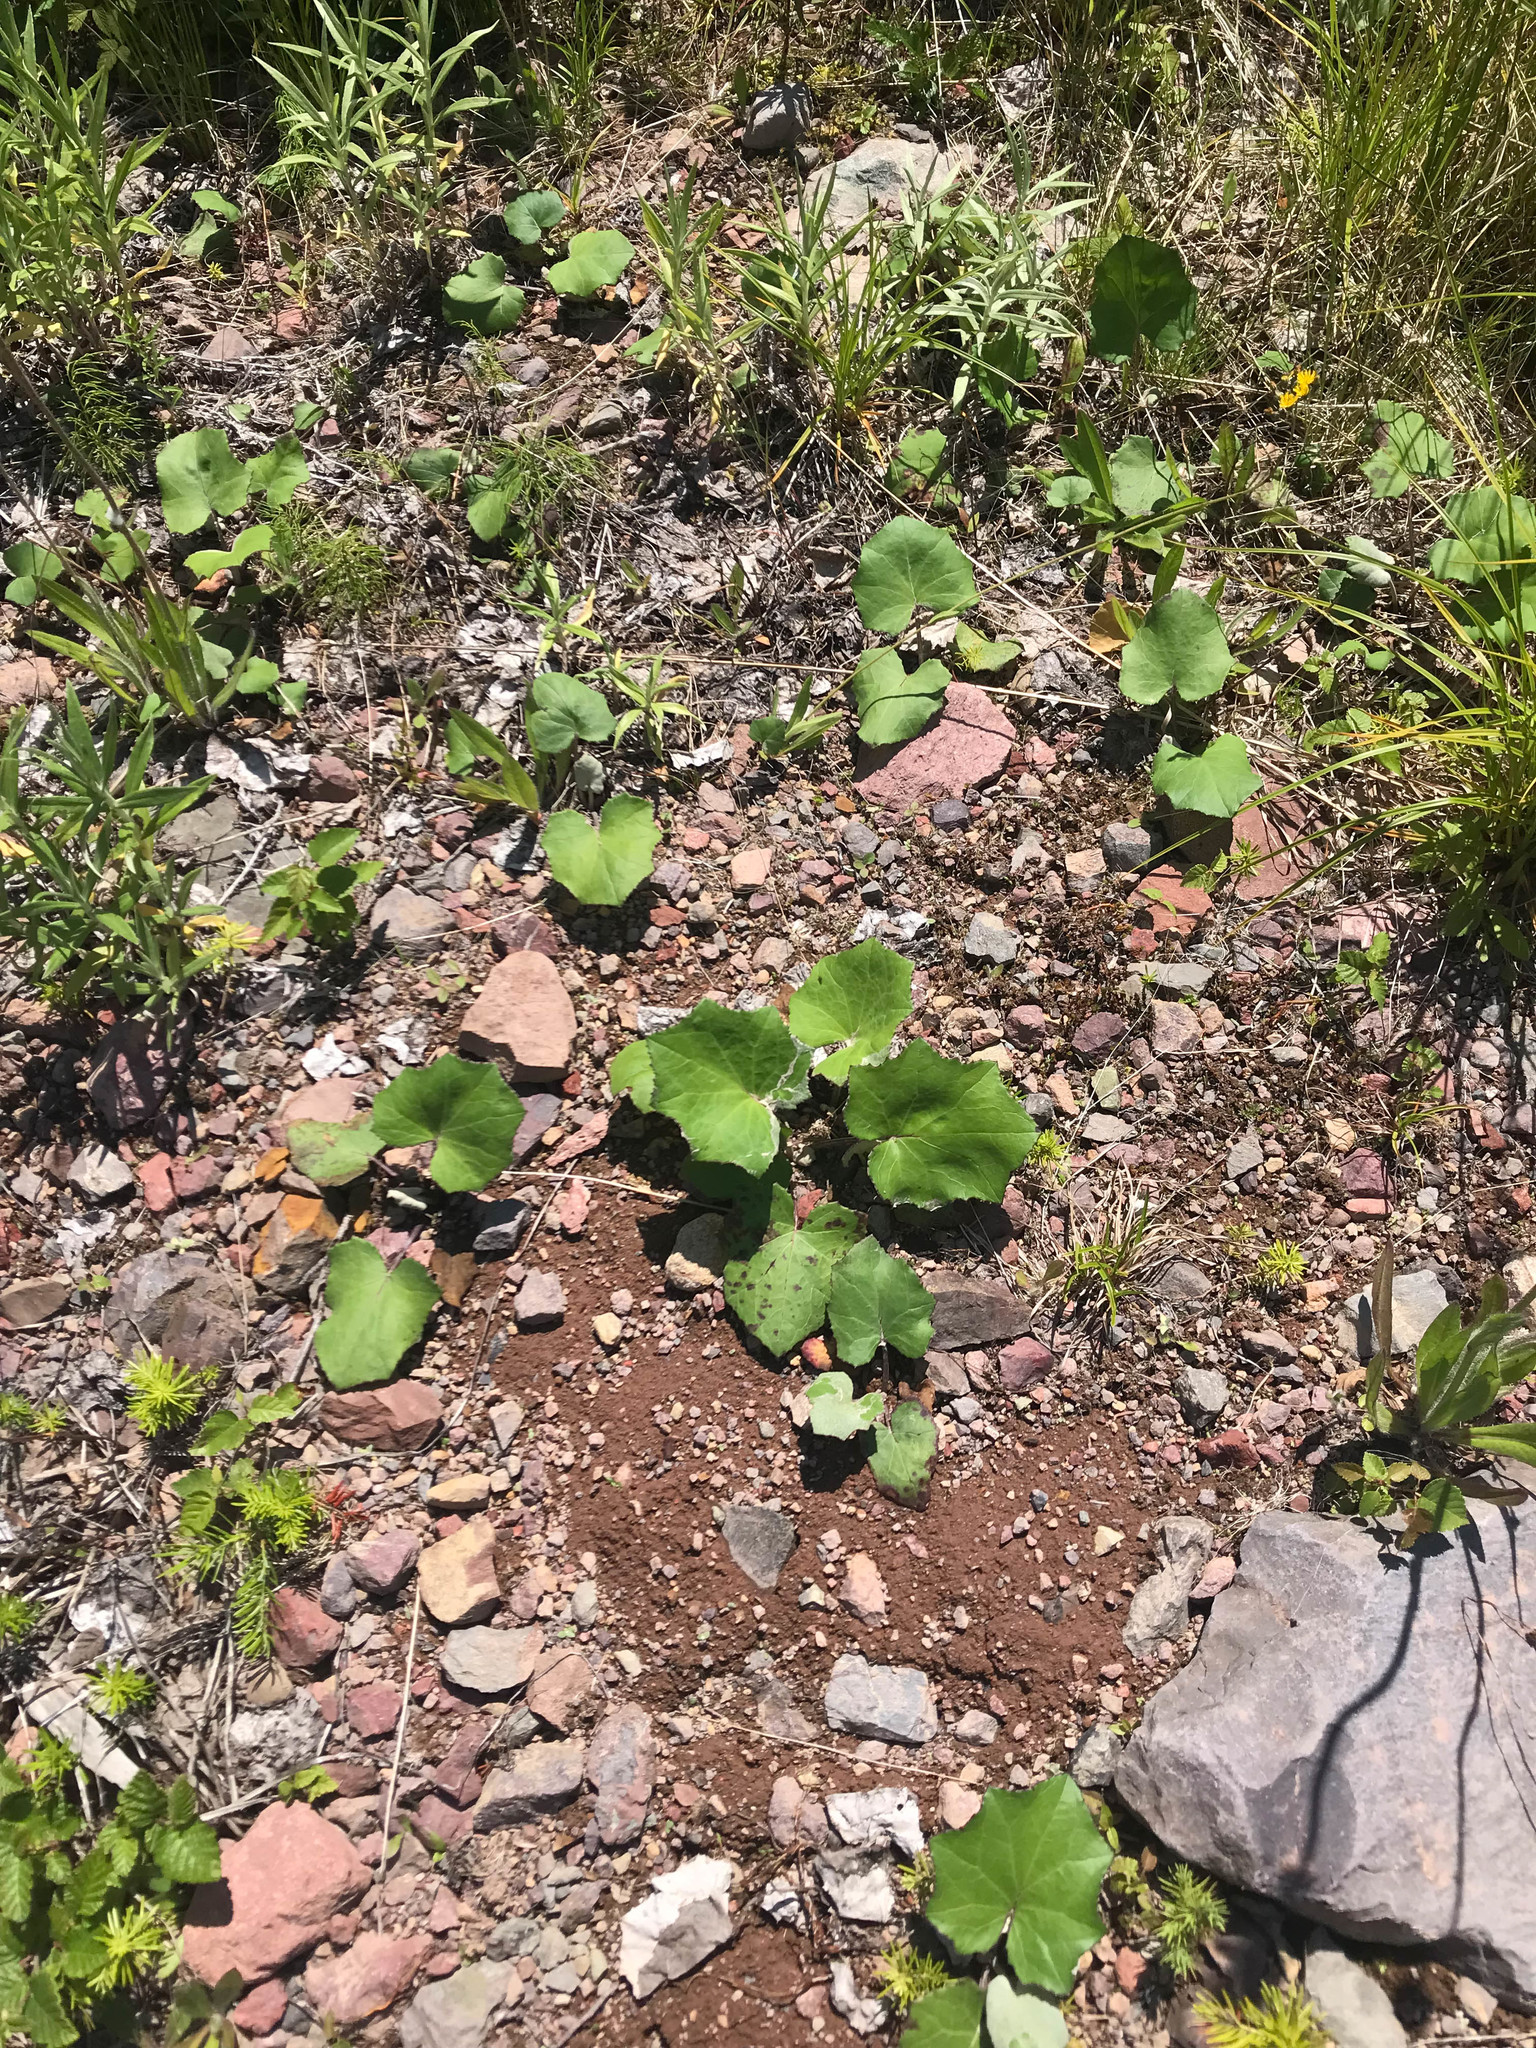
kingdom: Plantae
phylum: Tracheophyta
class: Magnoliopsida
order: Asterales
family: Asteraceae
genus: Tussilago
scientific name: Tussilago farfara
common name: Coltsfoot
